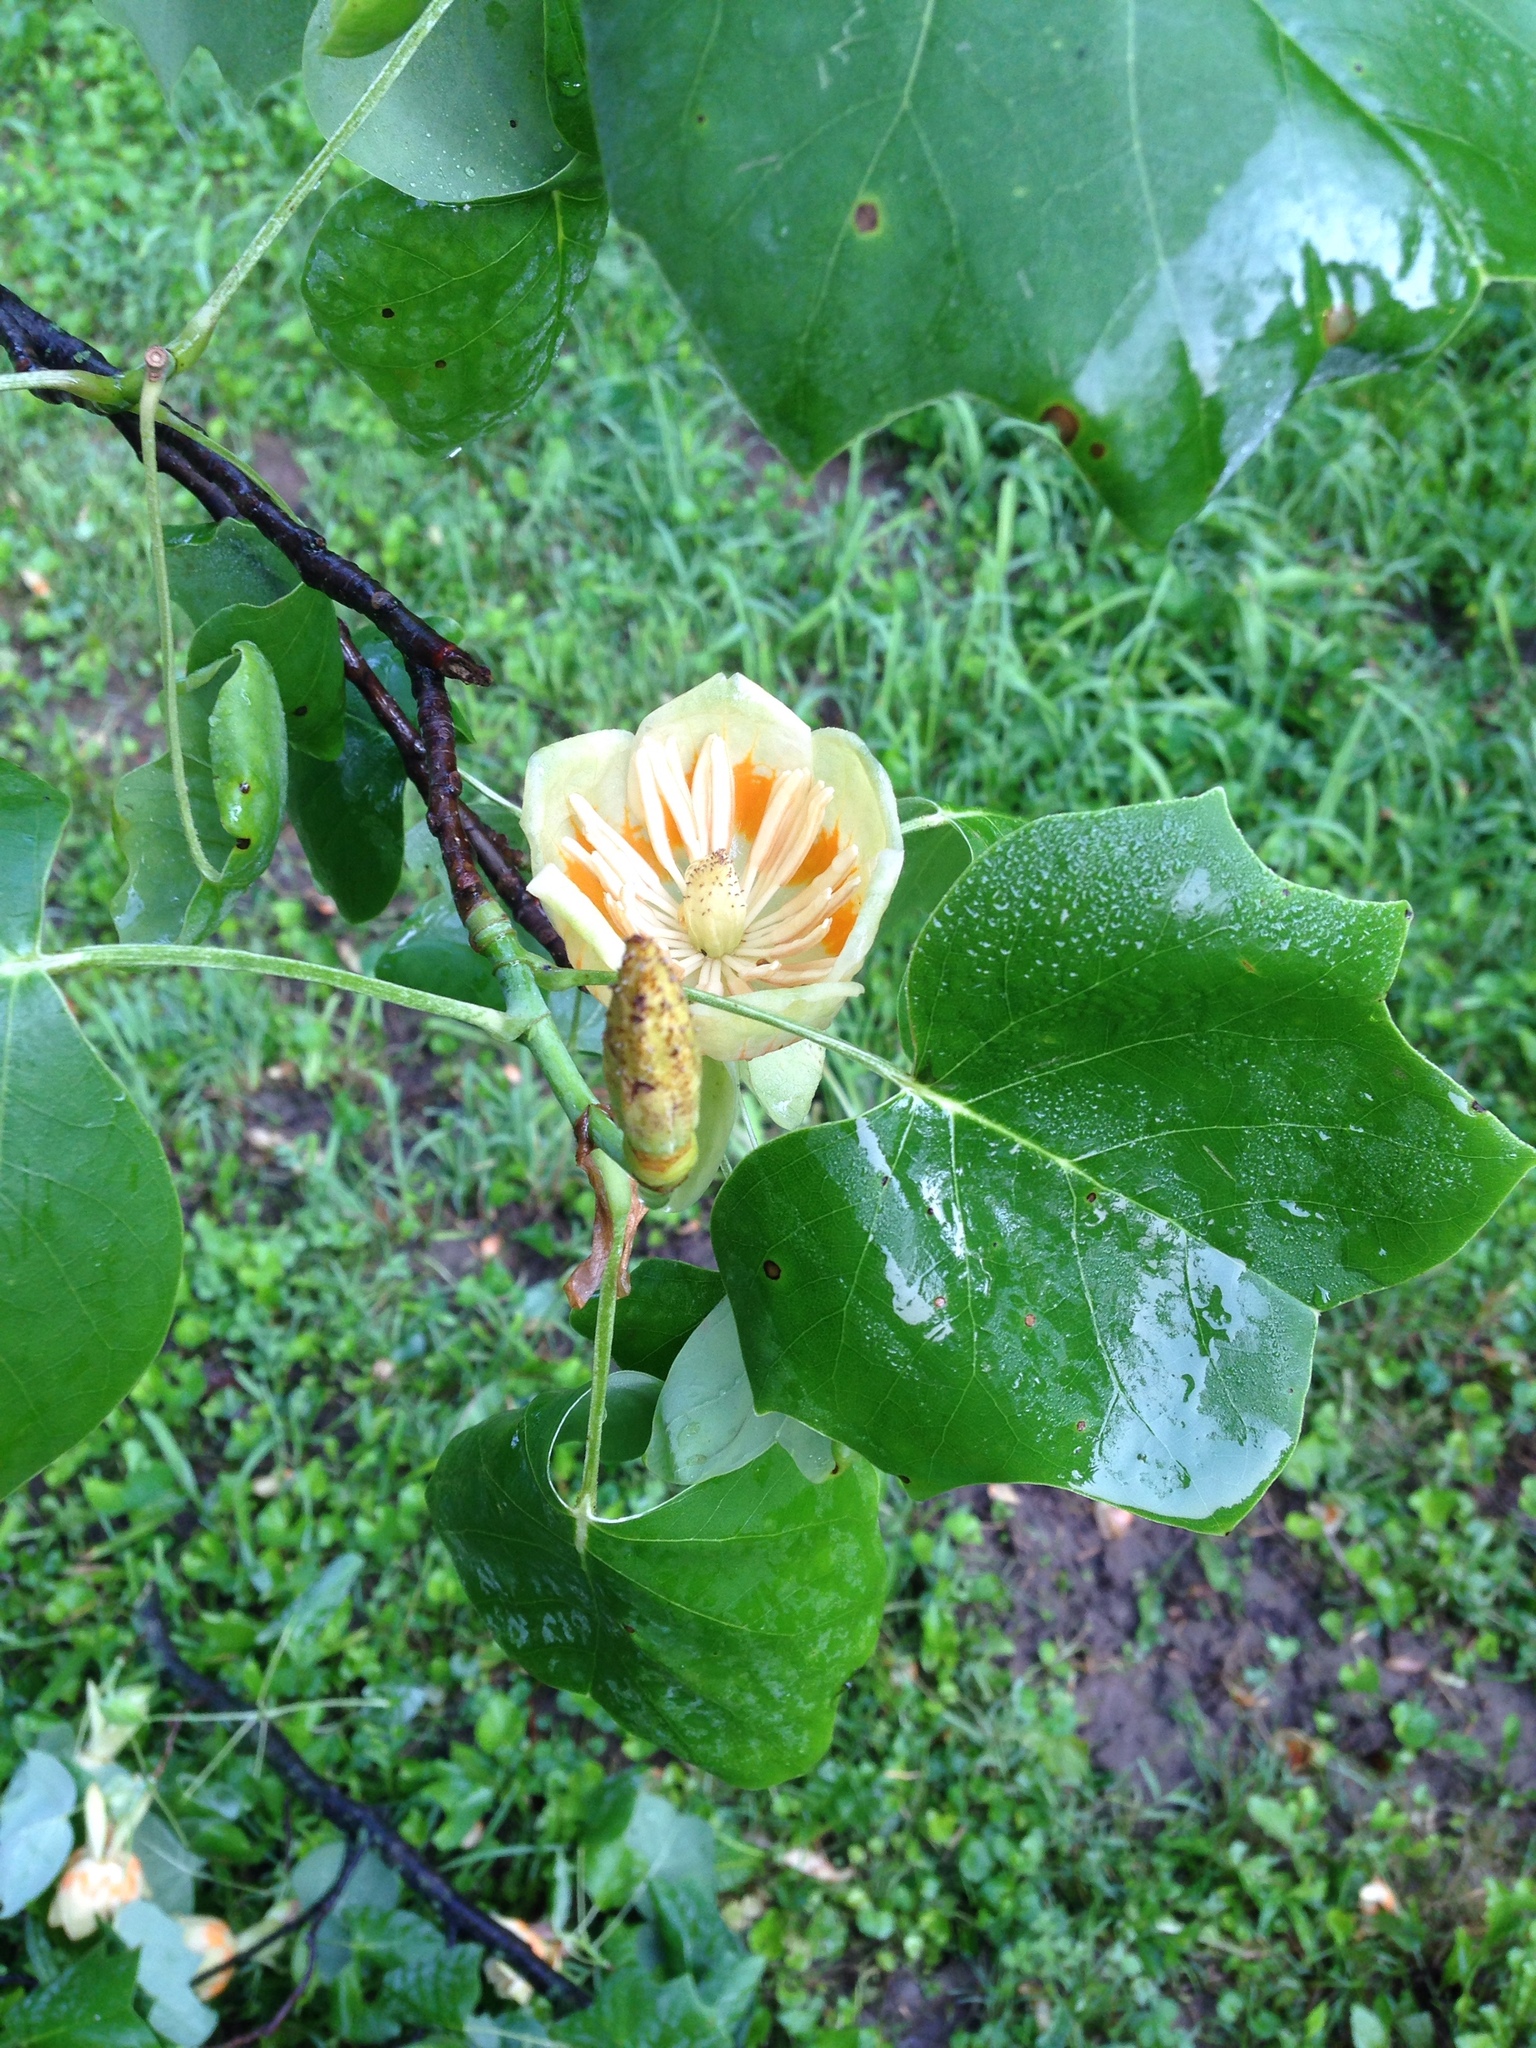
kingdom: Plantae
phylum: Tracheophyta
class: Magnoliopsida
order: Magnoliales
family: Magnoliaceae
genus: Liriodendron
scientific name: Liriodendron tulipifera
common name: Tulip tree
